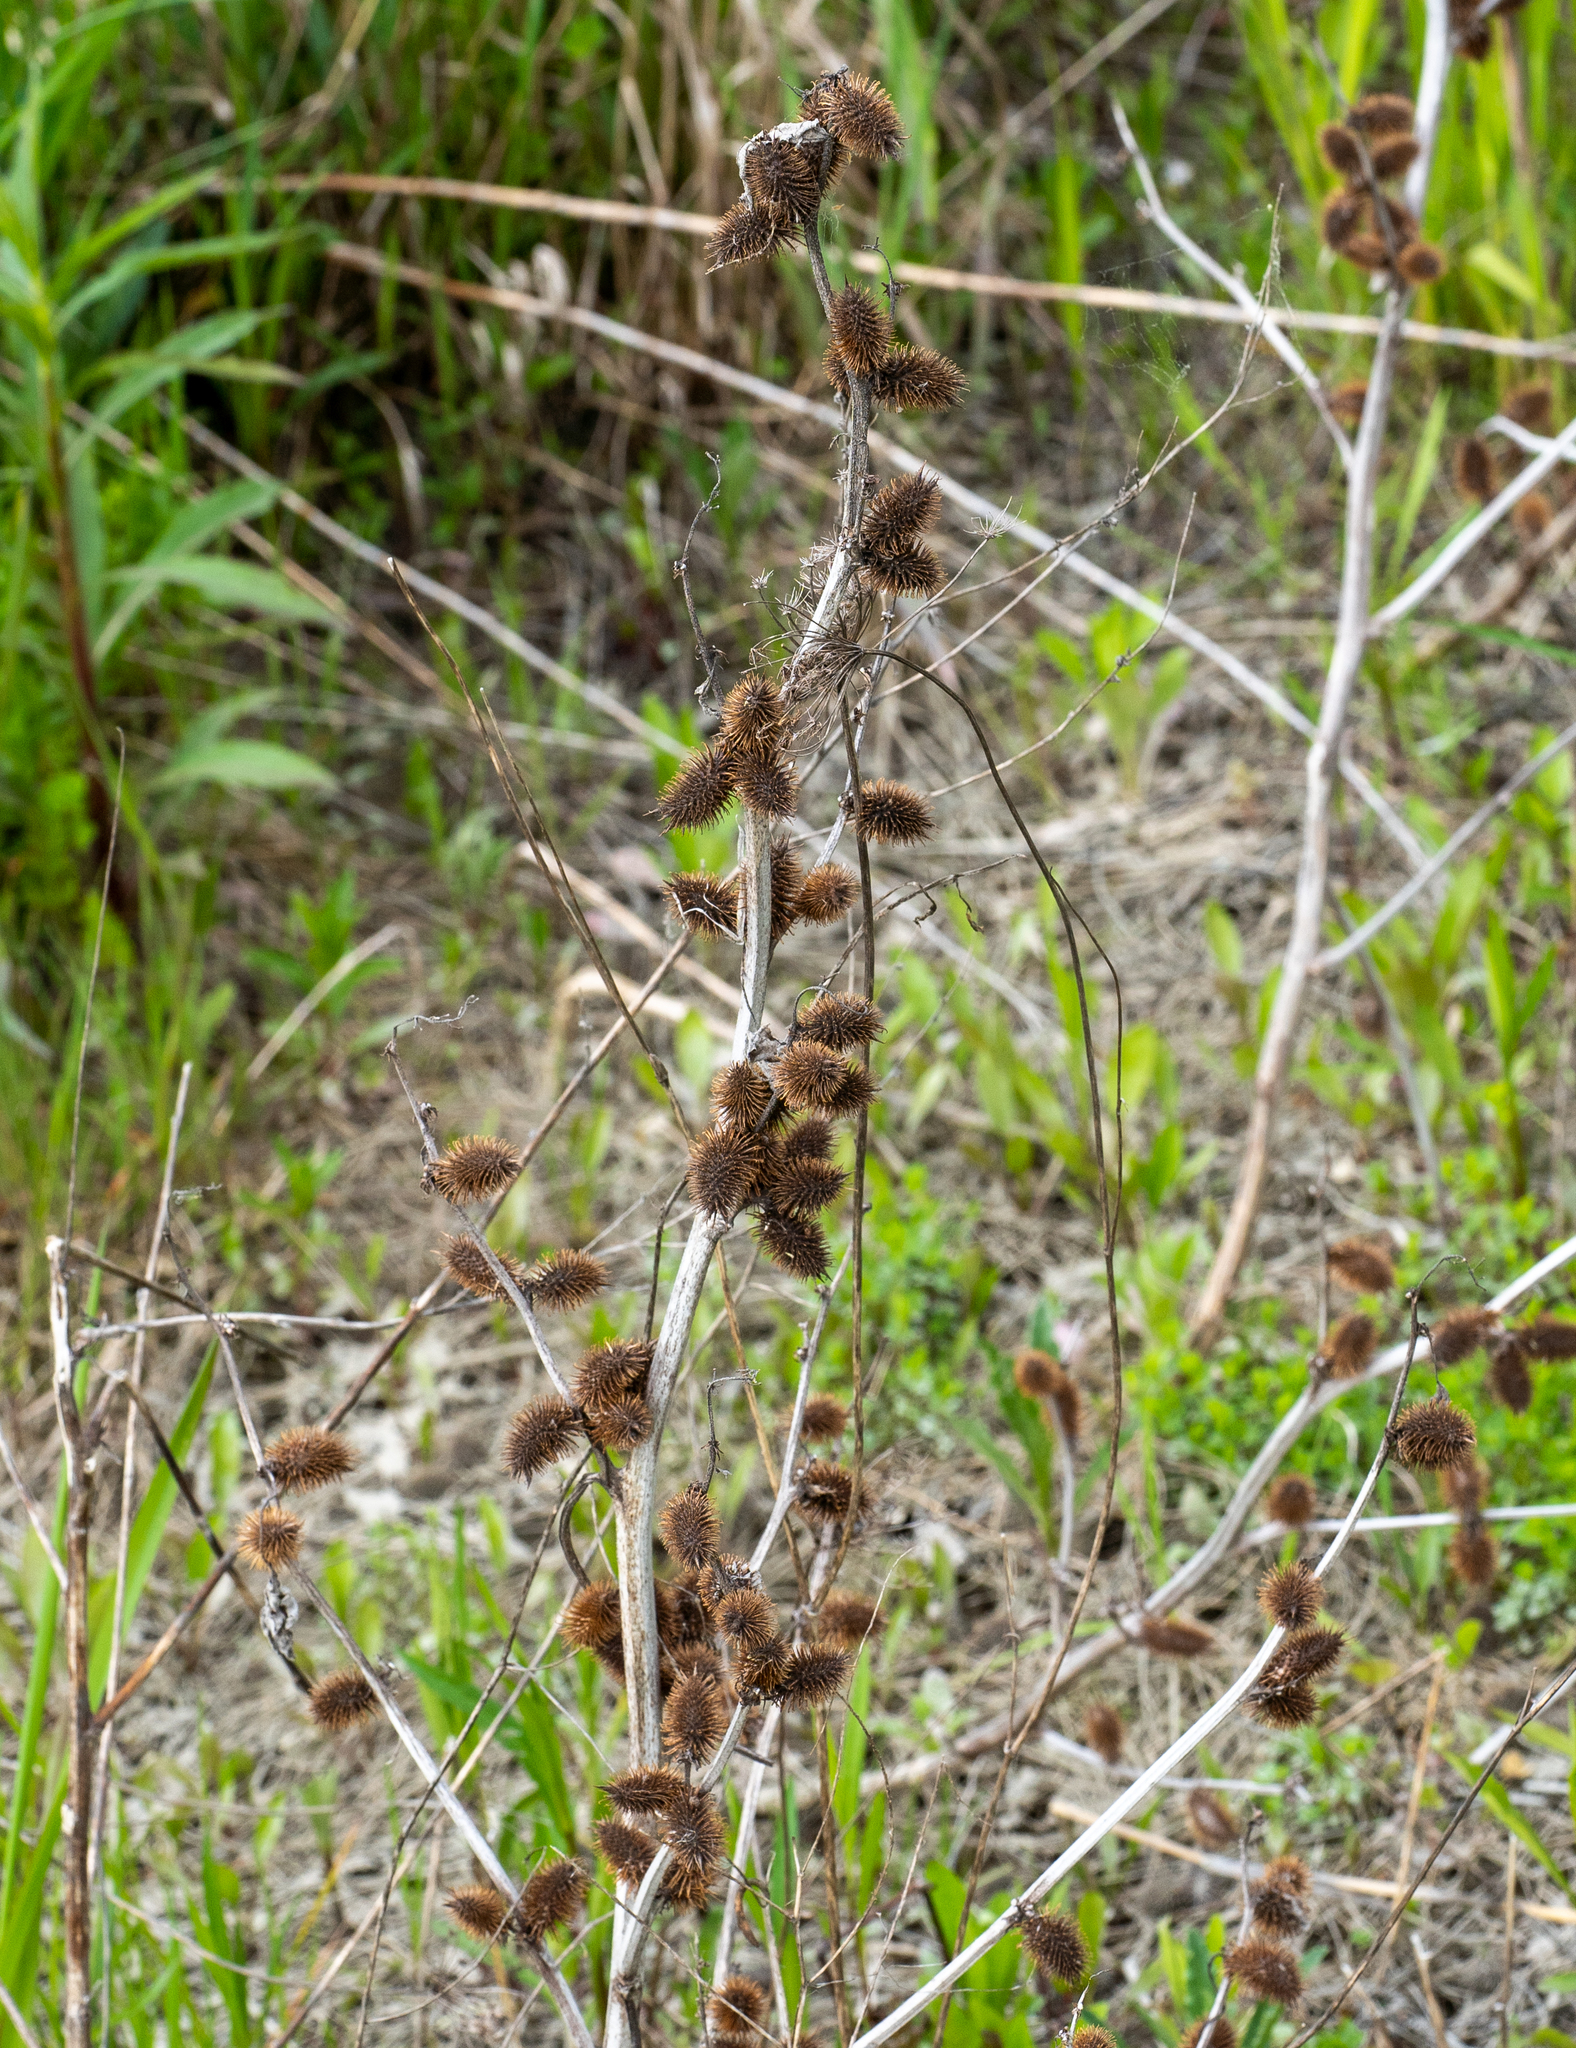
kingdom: Plantae
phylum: Tracheophyta
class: Magnoliopsida
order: Asterales
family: Asteraceae
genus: Xanthium
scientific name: Xanthium strumarium
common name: Rough cocklebur
